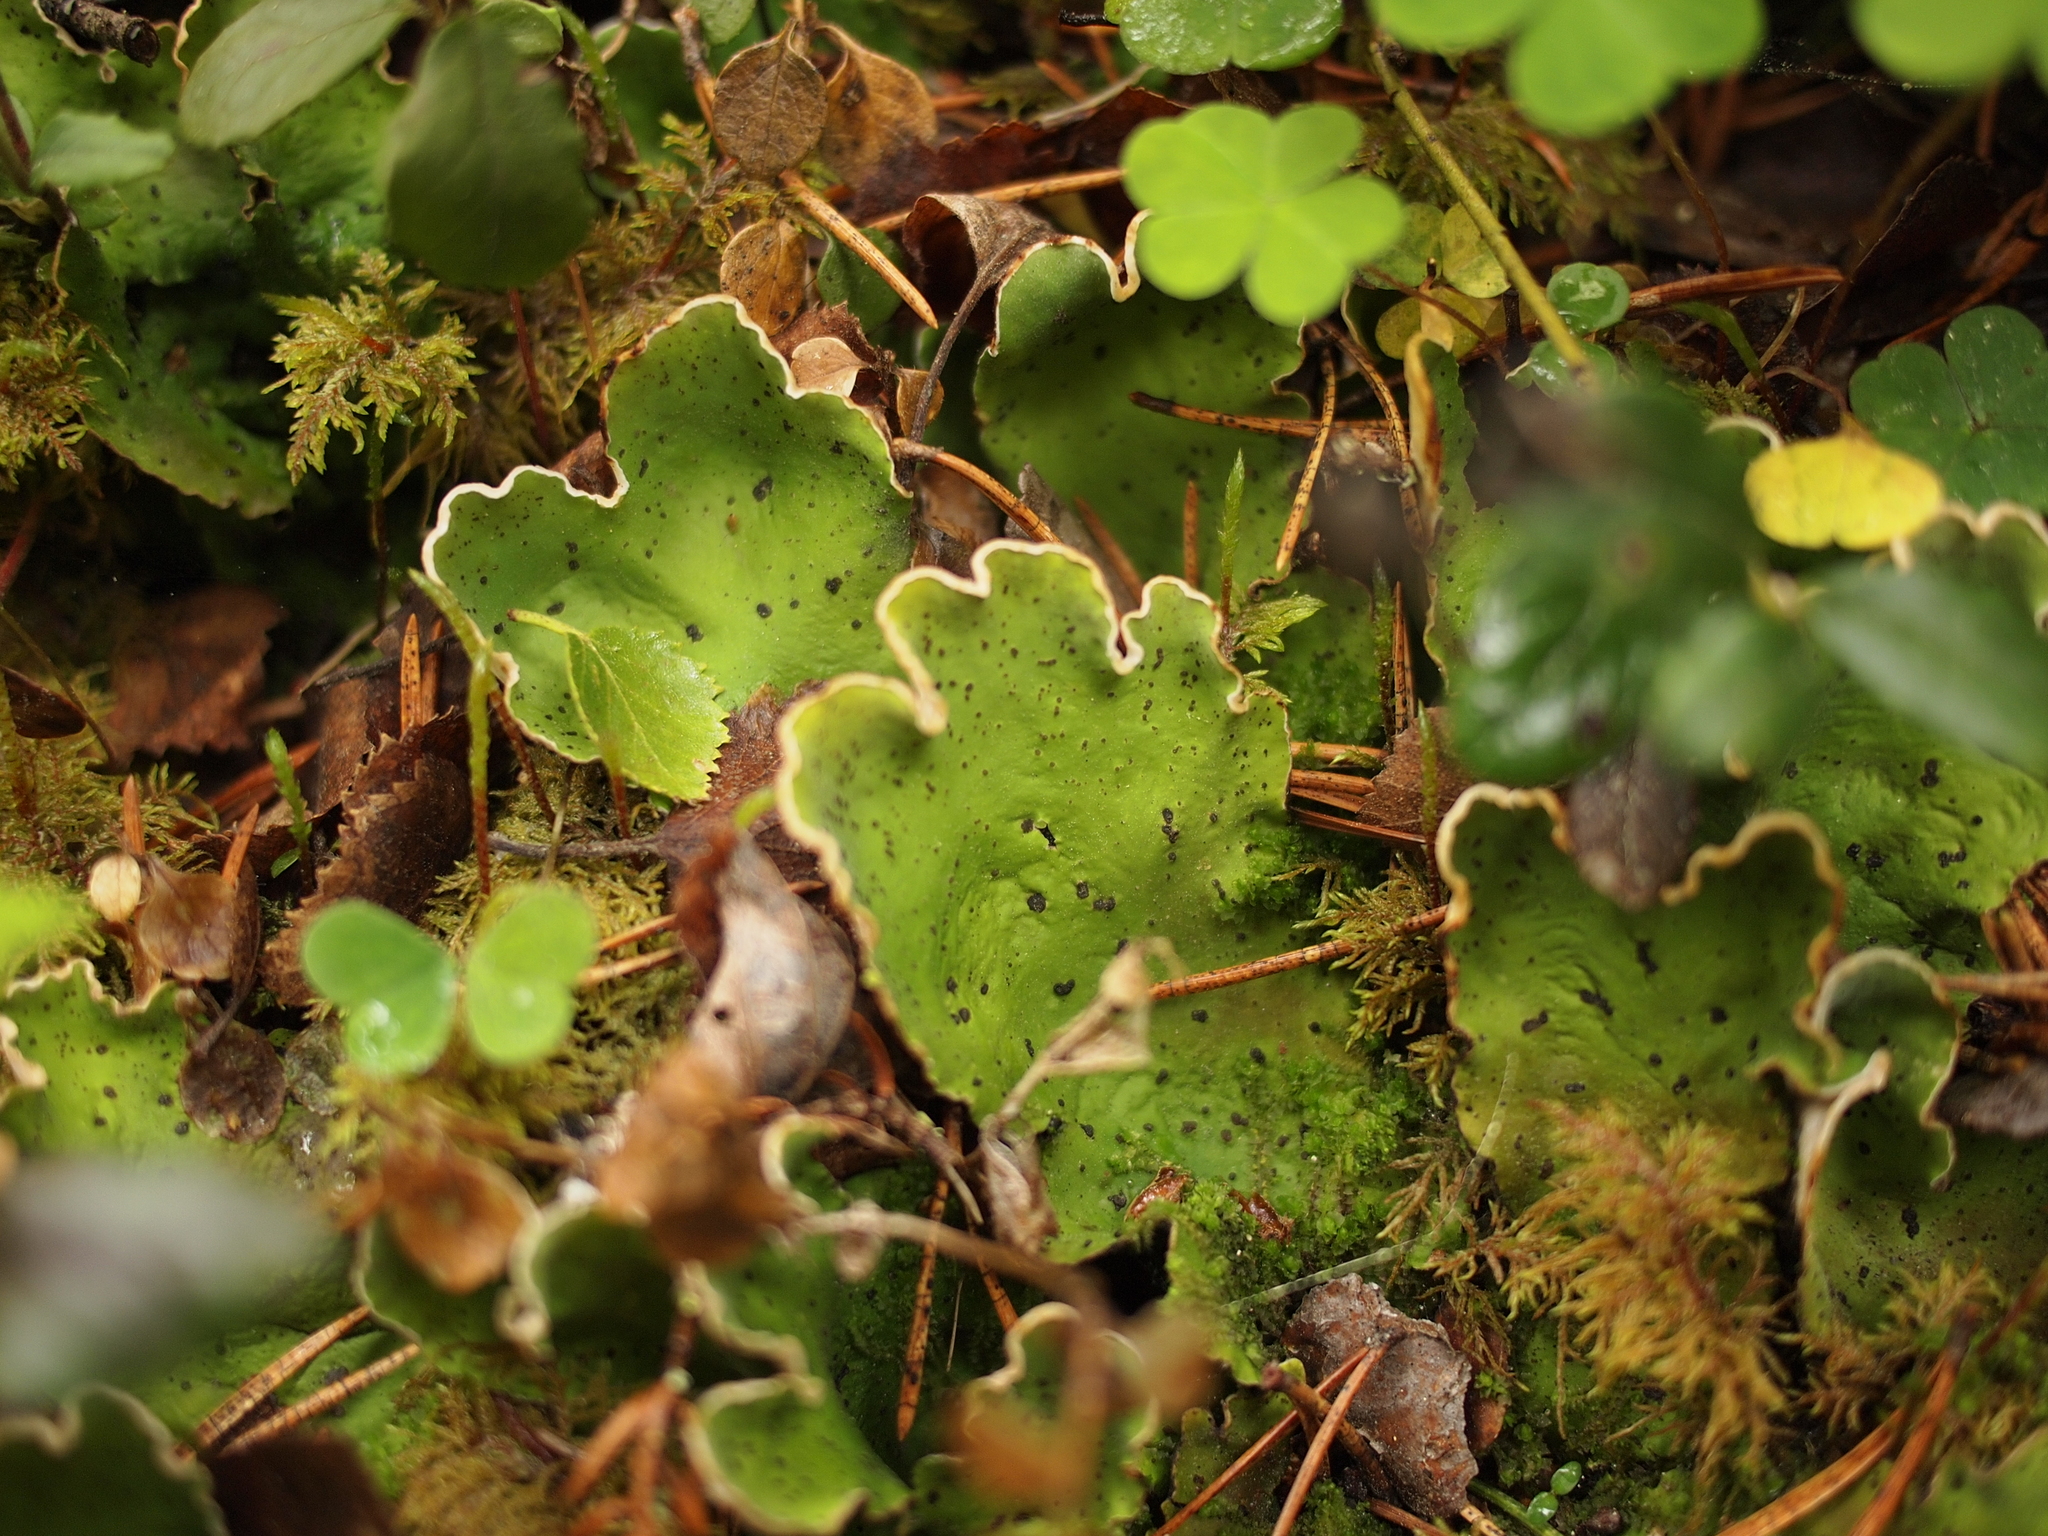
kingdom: Fungi
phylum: Ascomycota
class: Lecanoromycetes
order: Peltigerales
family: Peltigeraceae
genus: Peltigera
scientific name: Peltigera aphthosa
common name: Common freckle pelt lichen
